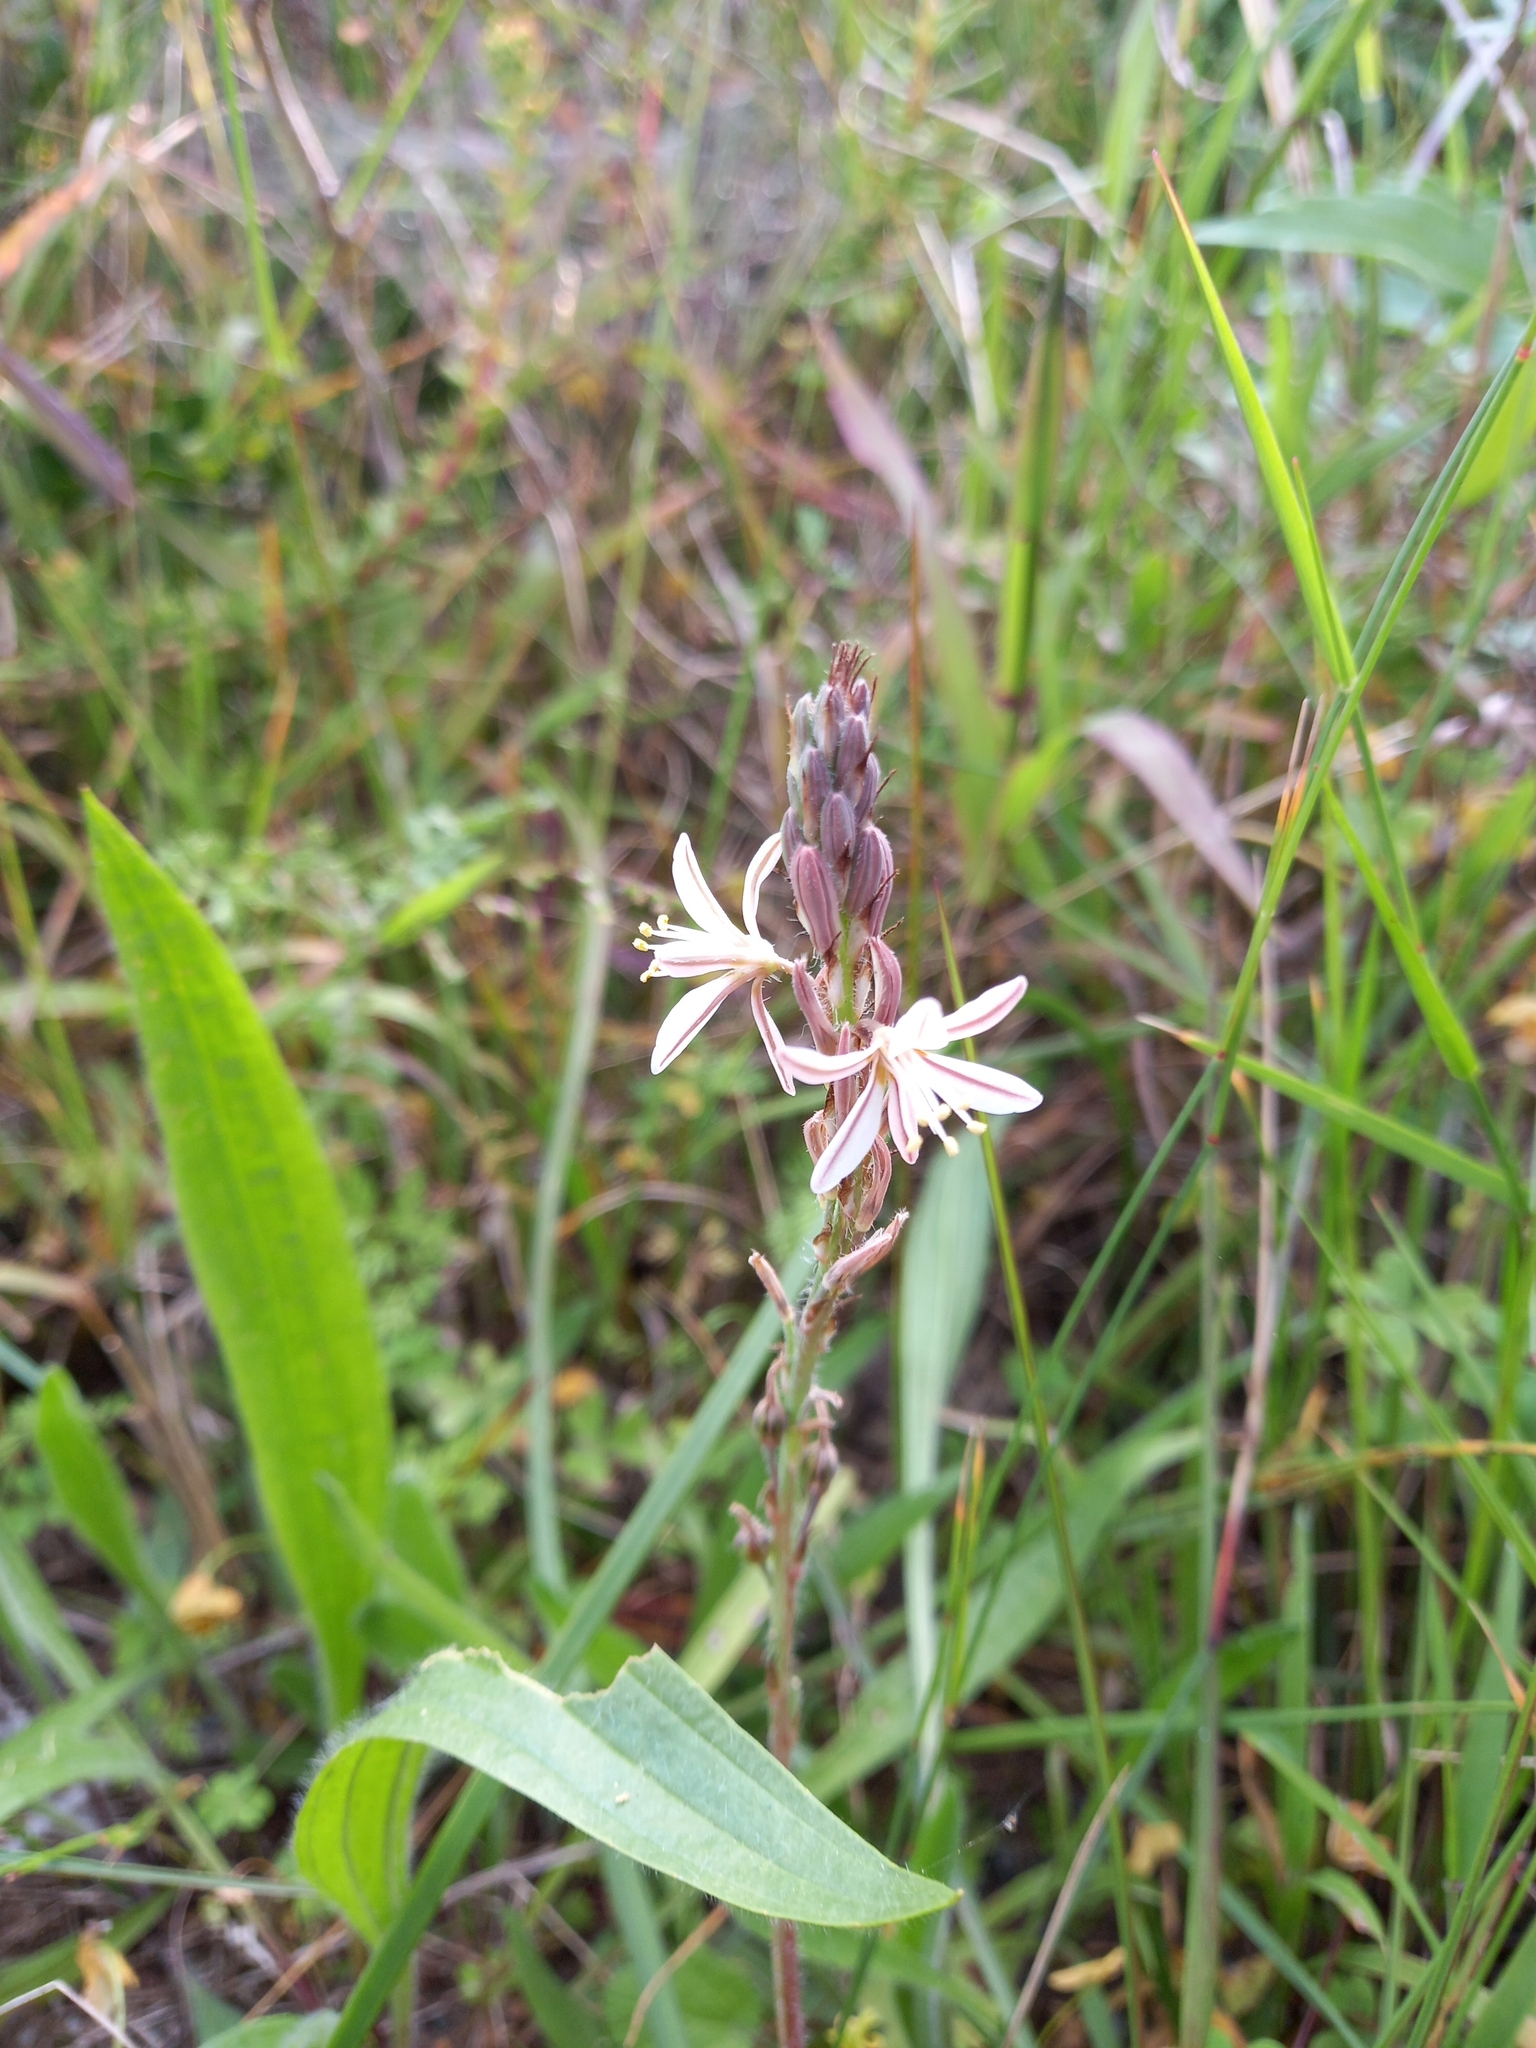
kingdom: Plantae
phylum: Tracheophyta
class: Liliopsida
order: Asparagales
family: Asphodelaceae
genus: Trachyandra
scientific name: Trachyandra ciliata
